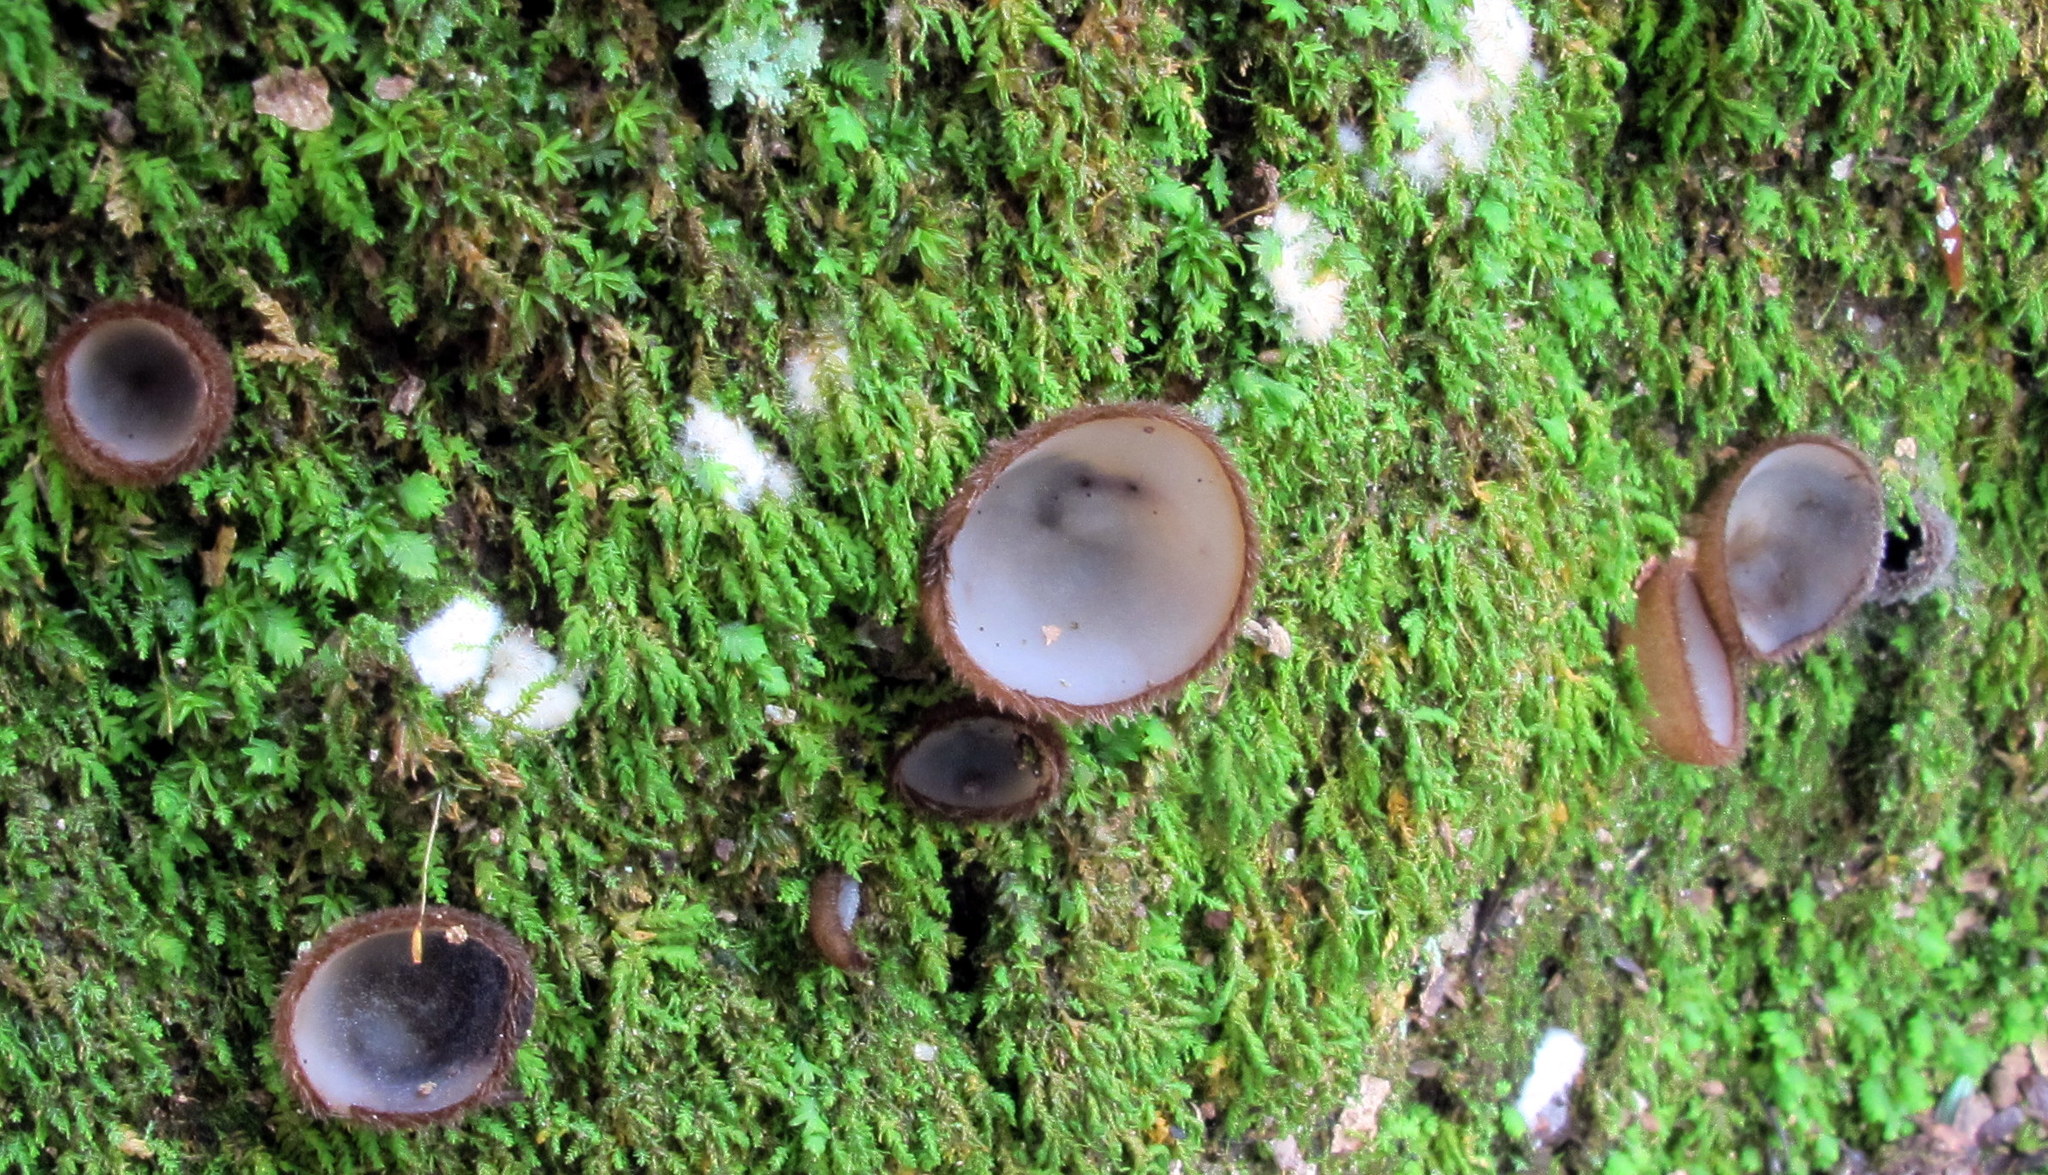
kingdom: Fungi
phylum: Ascomycota
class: Pezizomycetes
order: Pezizales
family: Pyronemataceae
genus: Humaria
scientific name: Humaria hemisphaerica
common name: Glazed cup
